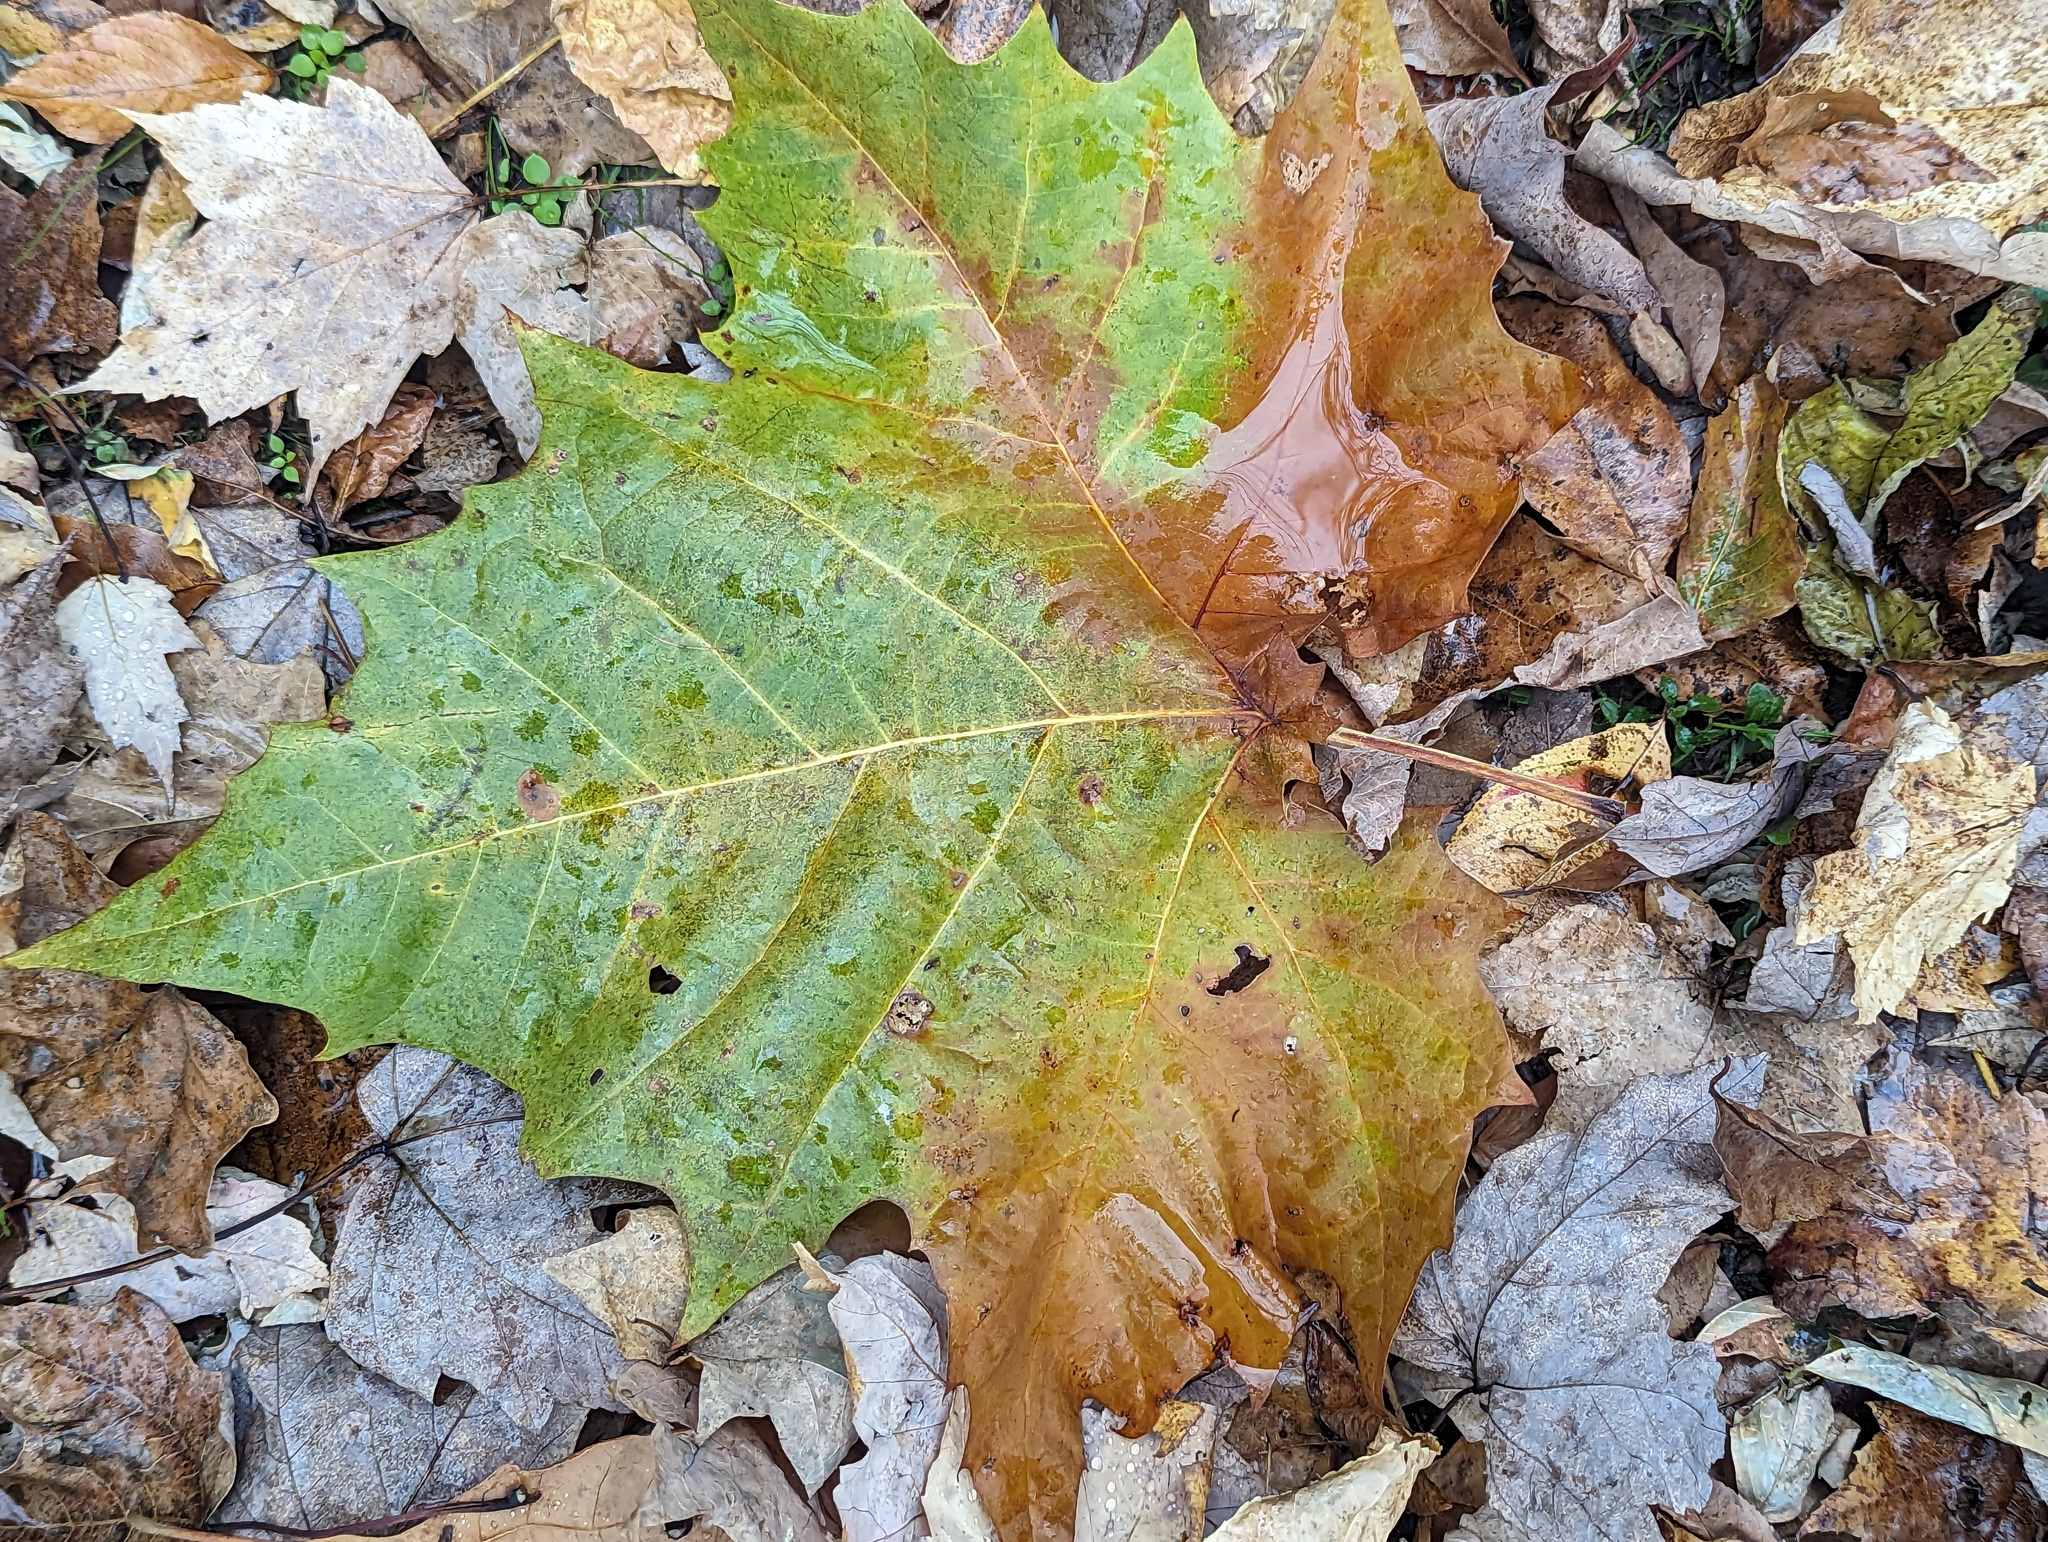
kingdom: Plantae
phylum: Tracheophyta
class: Magnoliopsida
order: Proteales
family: Platanaceae
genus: Platanus
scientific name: Platanus occidentalis
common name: American sycamore
